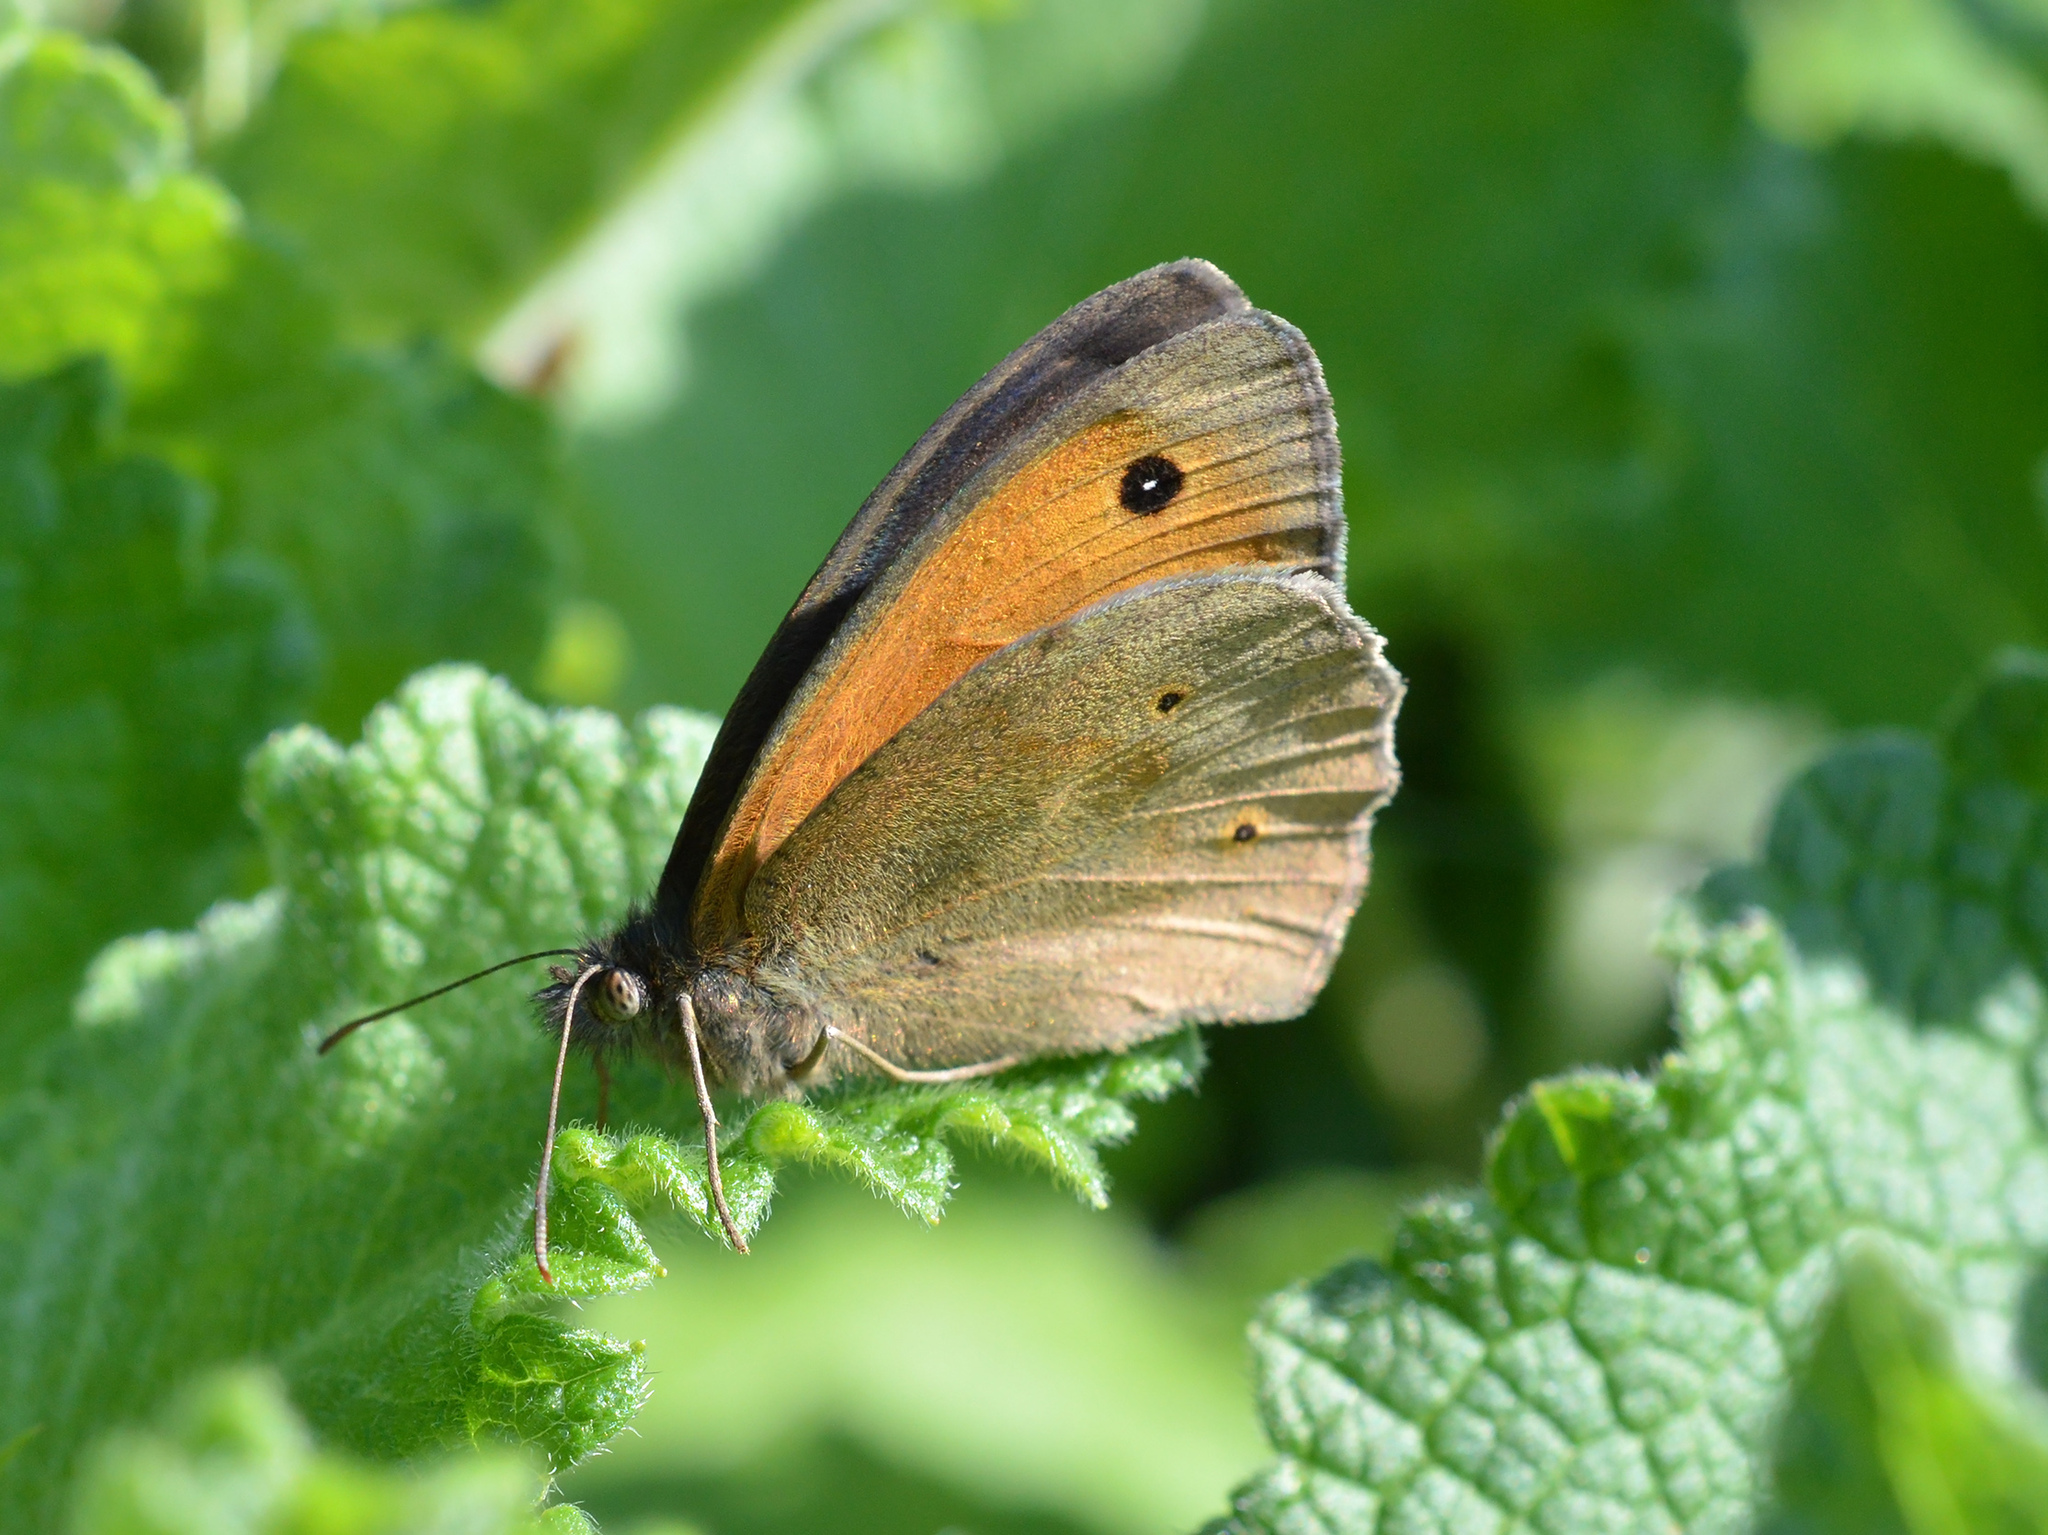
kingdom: Animalia
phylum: Arthropoda
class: Insecta
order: Lepidoptera
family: Nymphalidae
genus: Maniola
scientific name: Maniola jurtina
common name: Meadow brown
